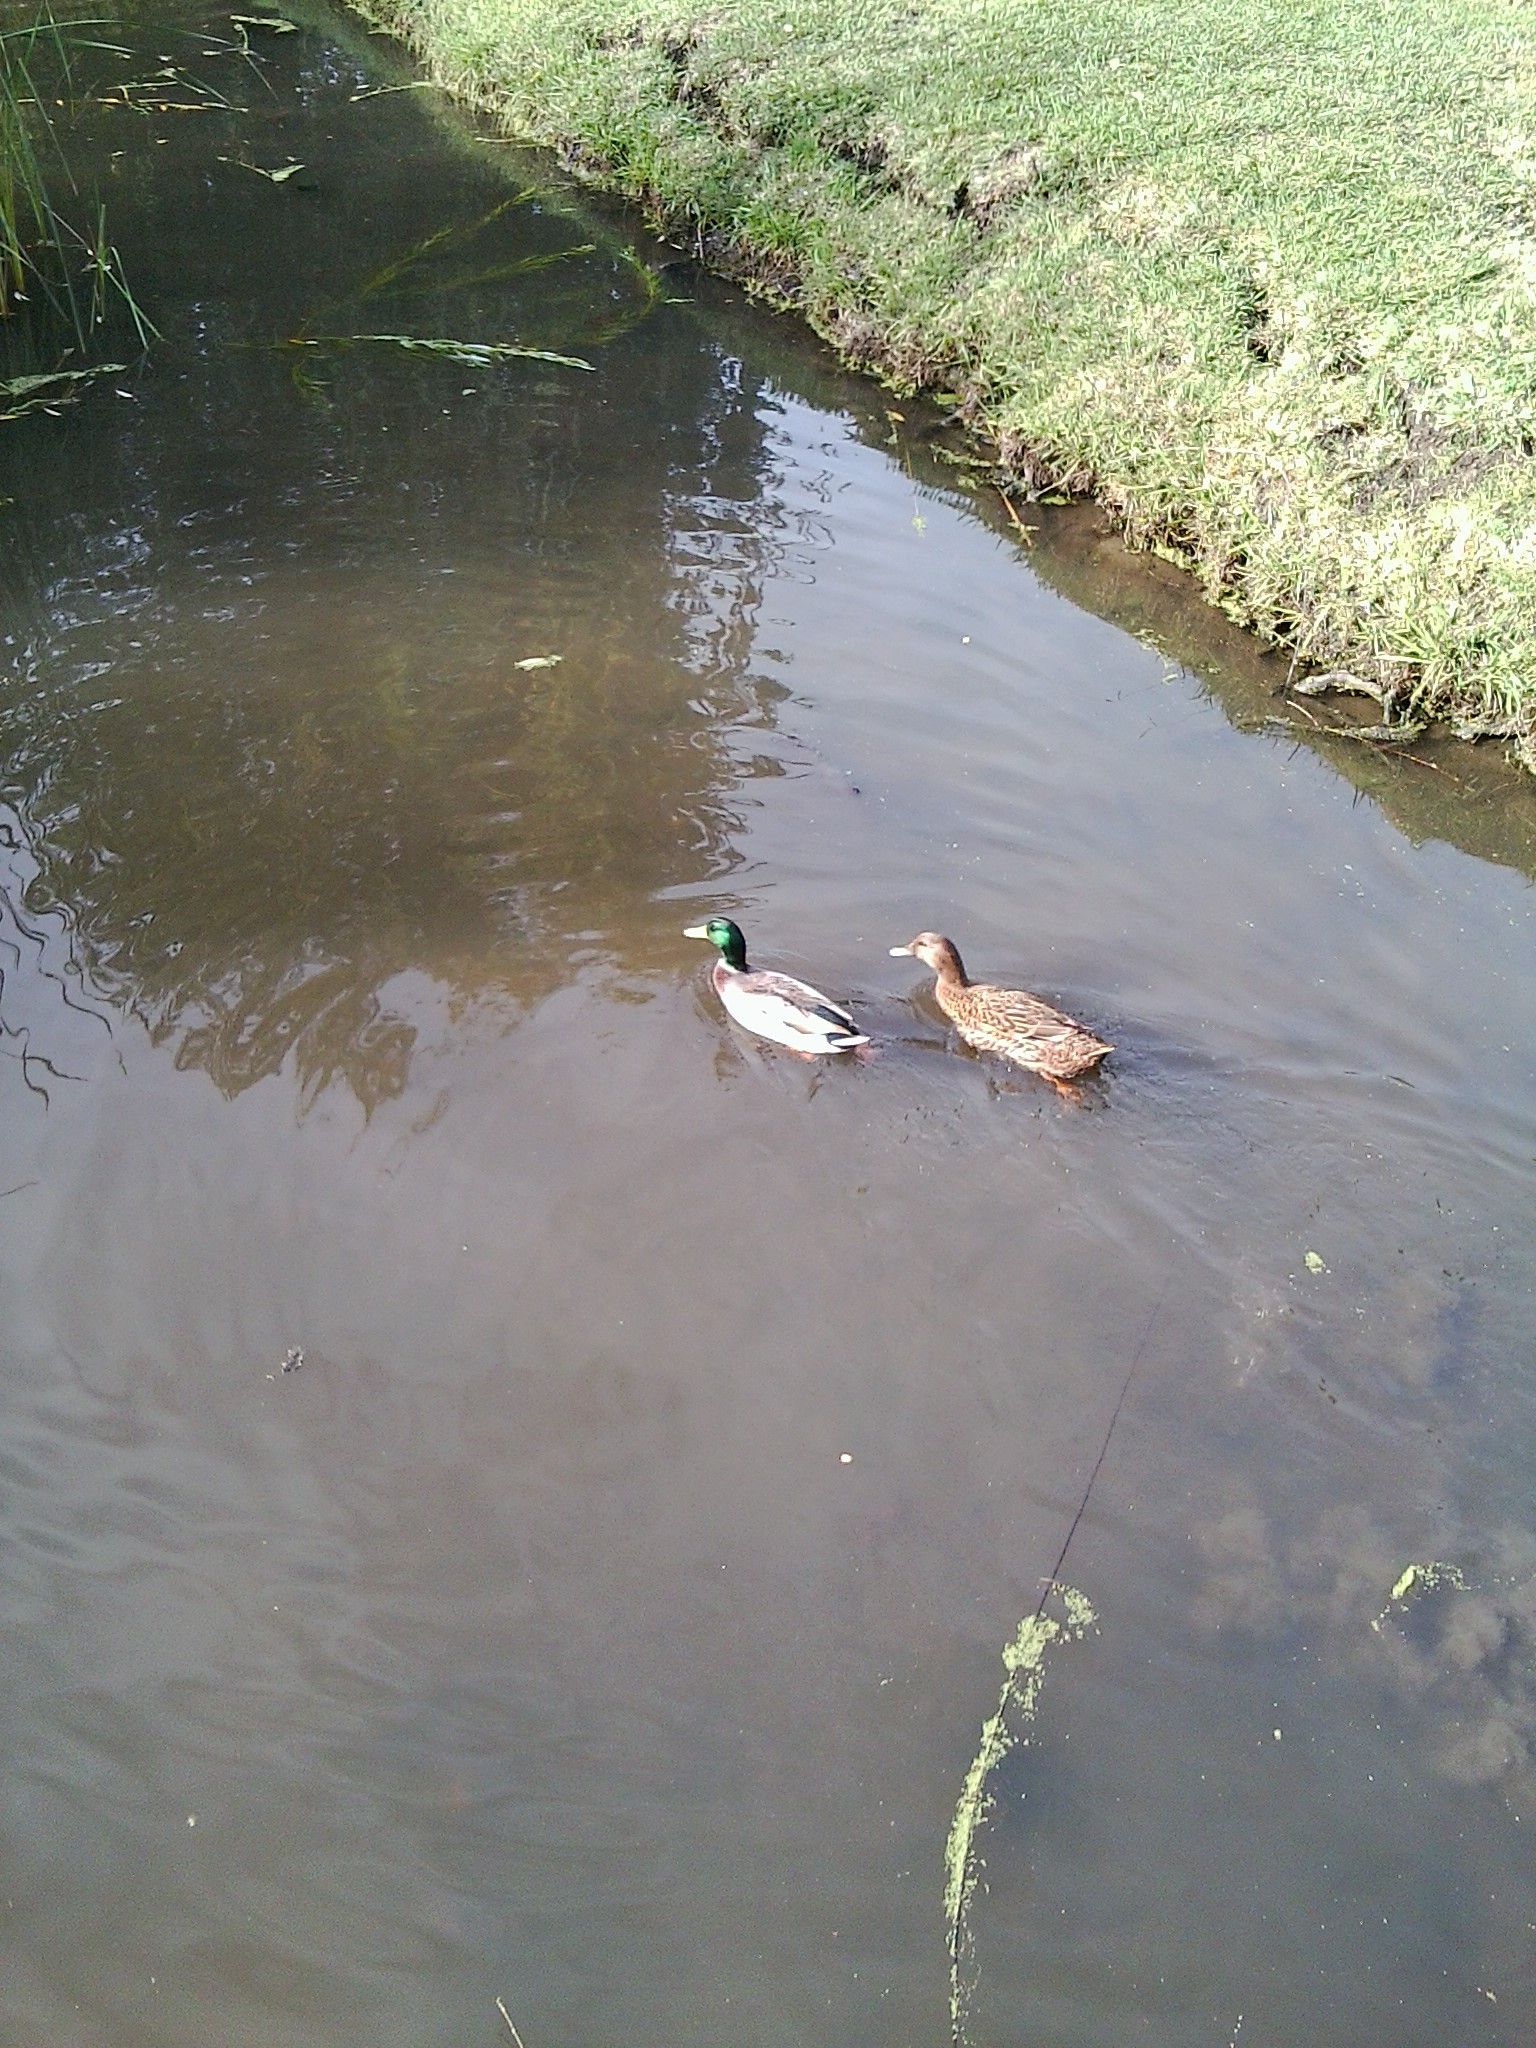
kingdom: Animalia
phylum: Chordata
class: Aves
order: Anseriformes
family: Anatidae
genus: Anas
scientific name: Anas platyrhynchos
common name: Mallard
